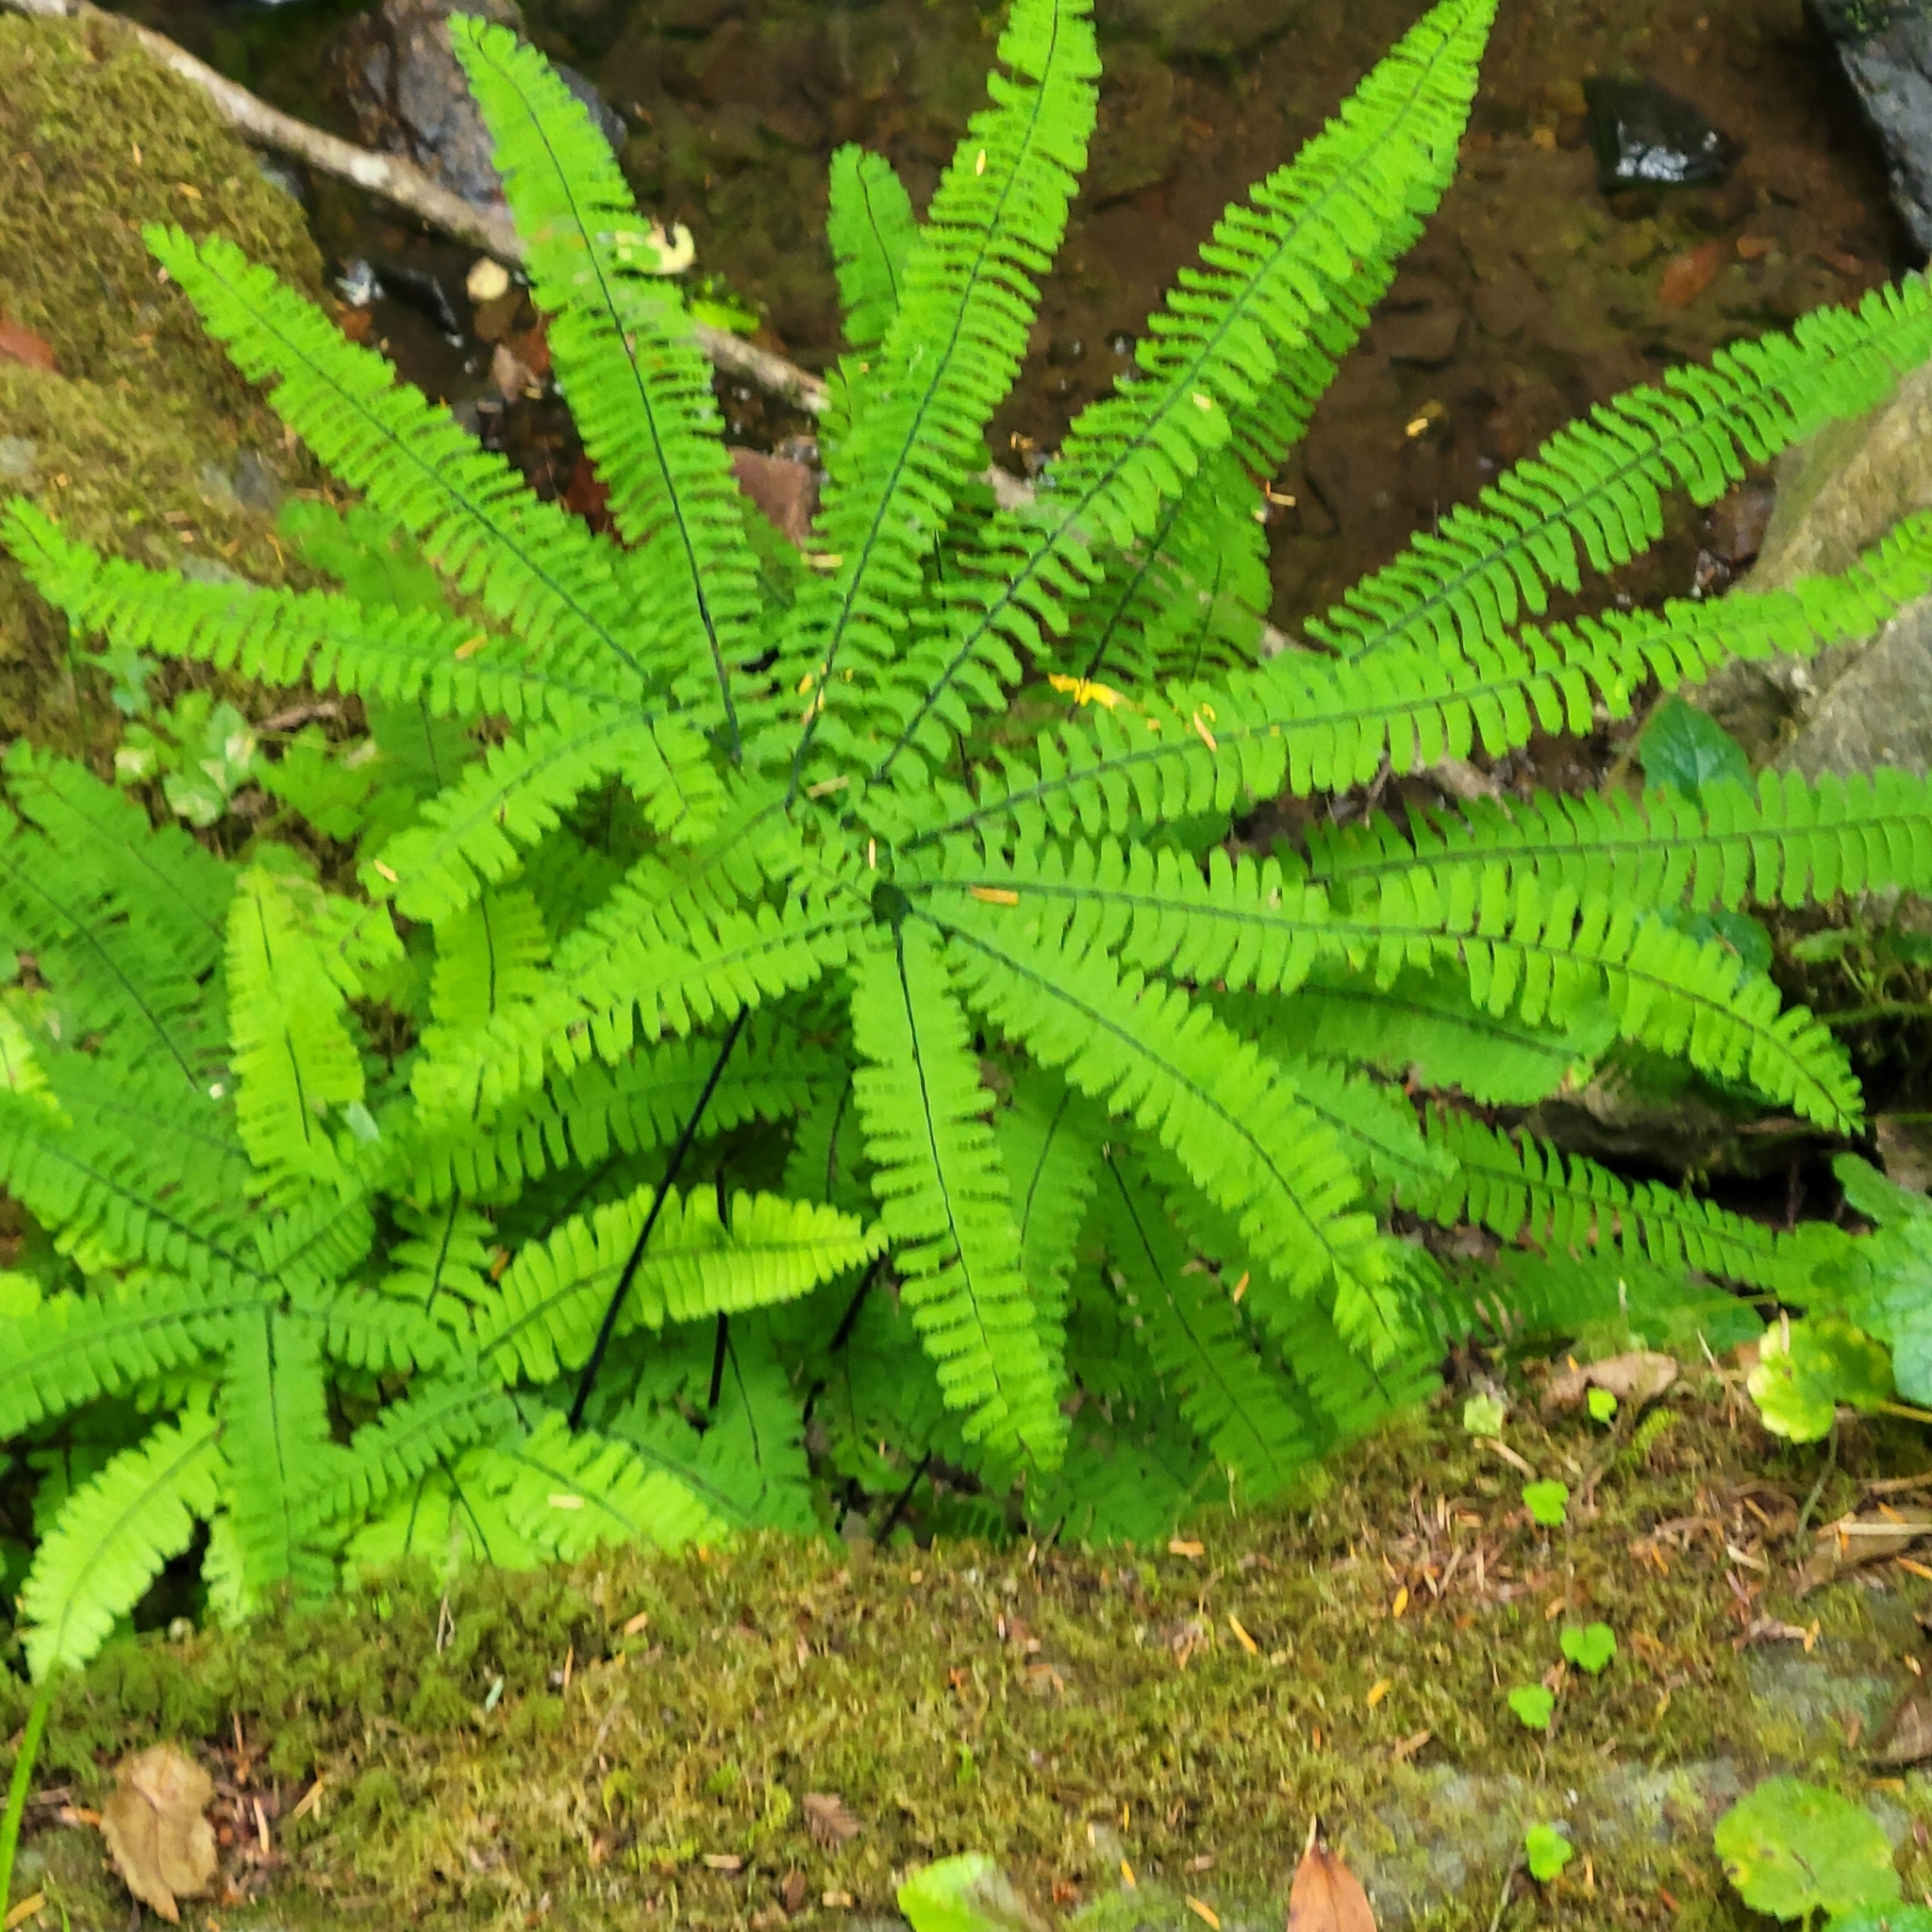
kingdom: Plantae
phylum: Tracheophyta
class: Polypodiopsida
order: Polypodiales
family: Pteridaceae
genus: Adiantum
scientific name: Adiantum aleuticum
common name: Aleutian maidenhair fern
